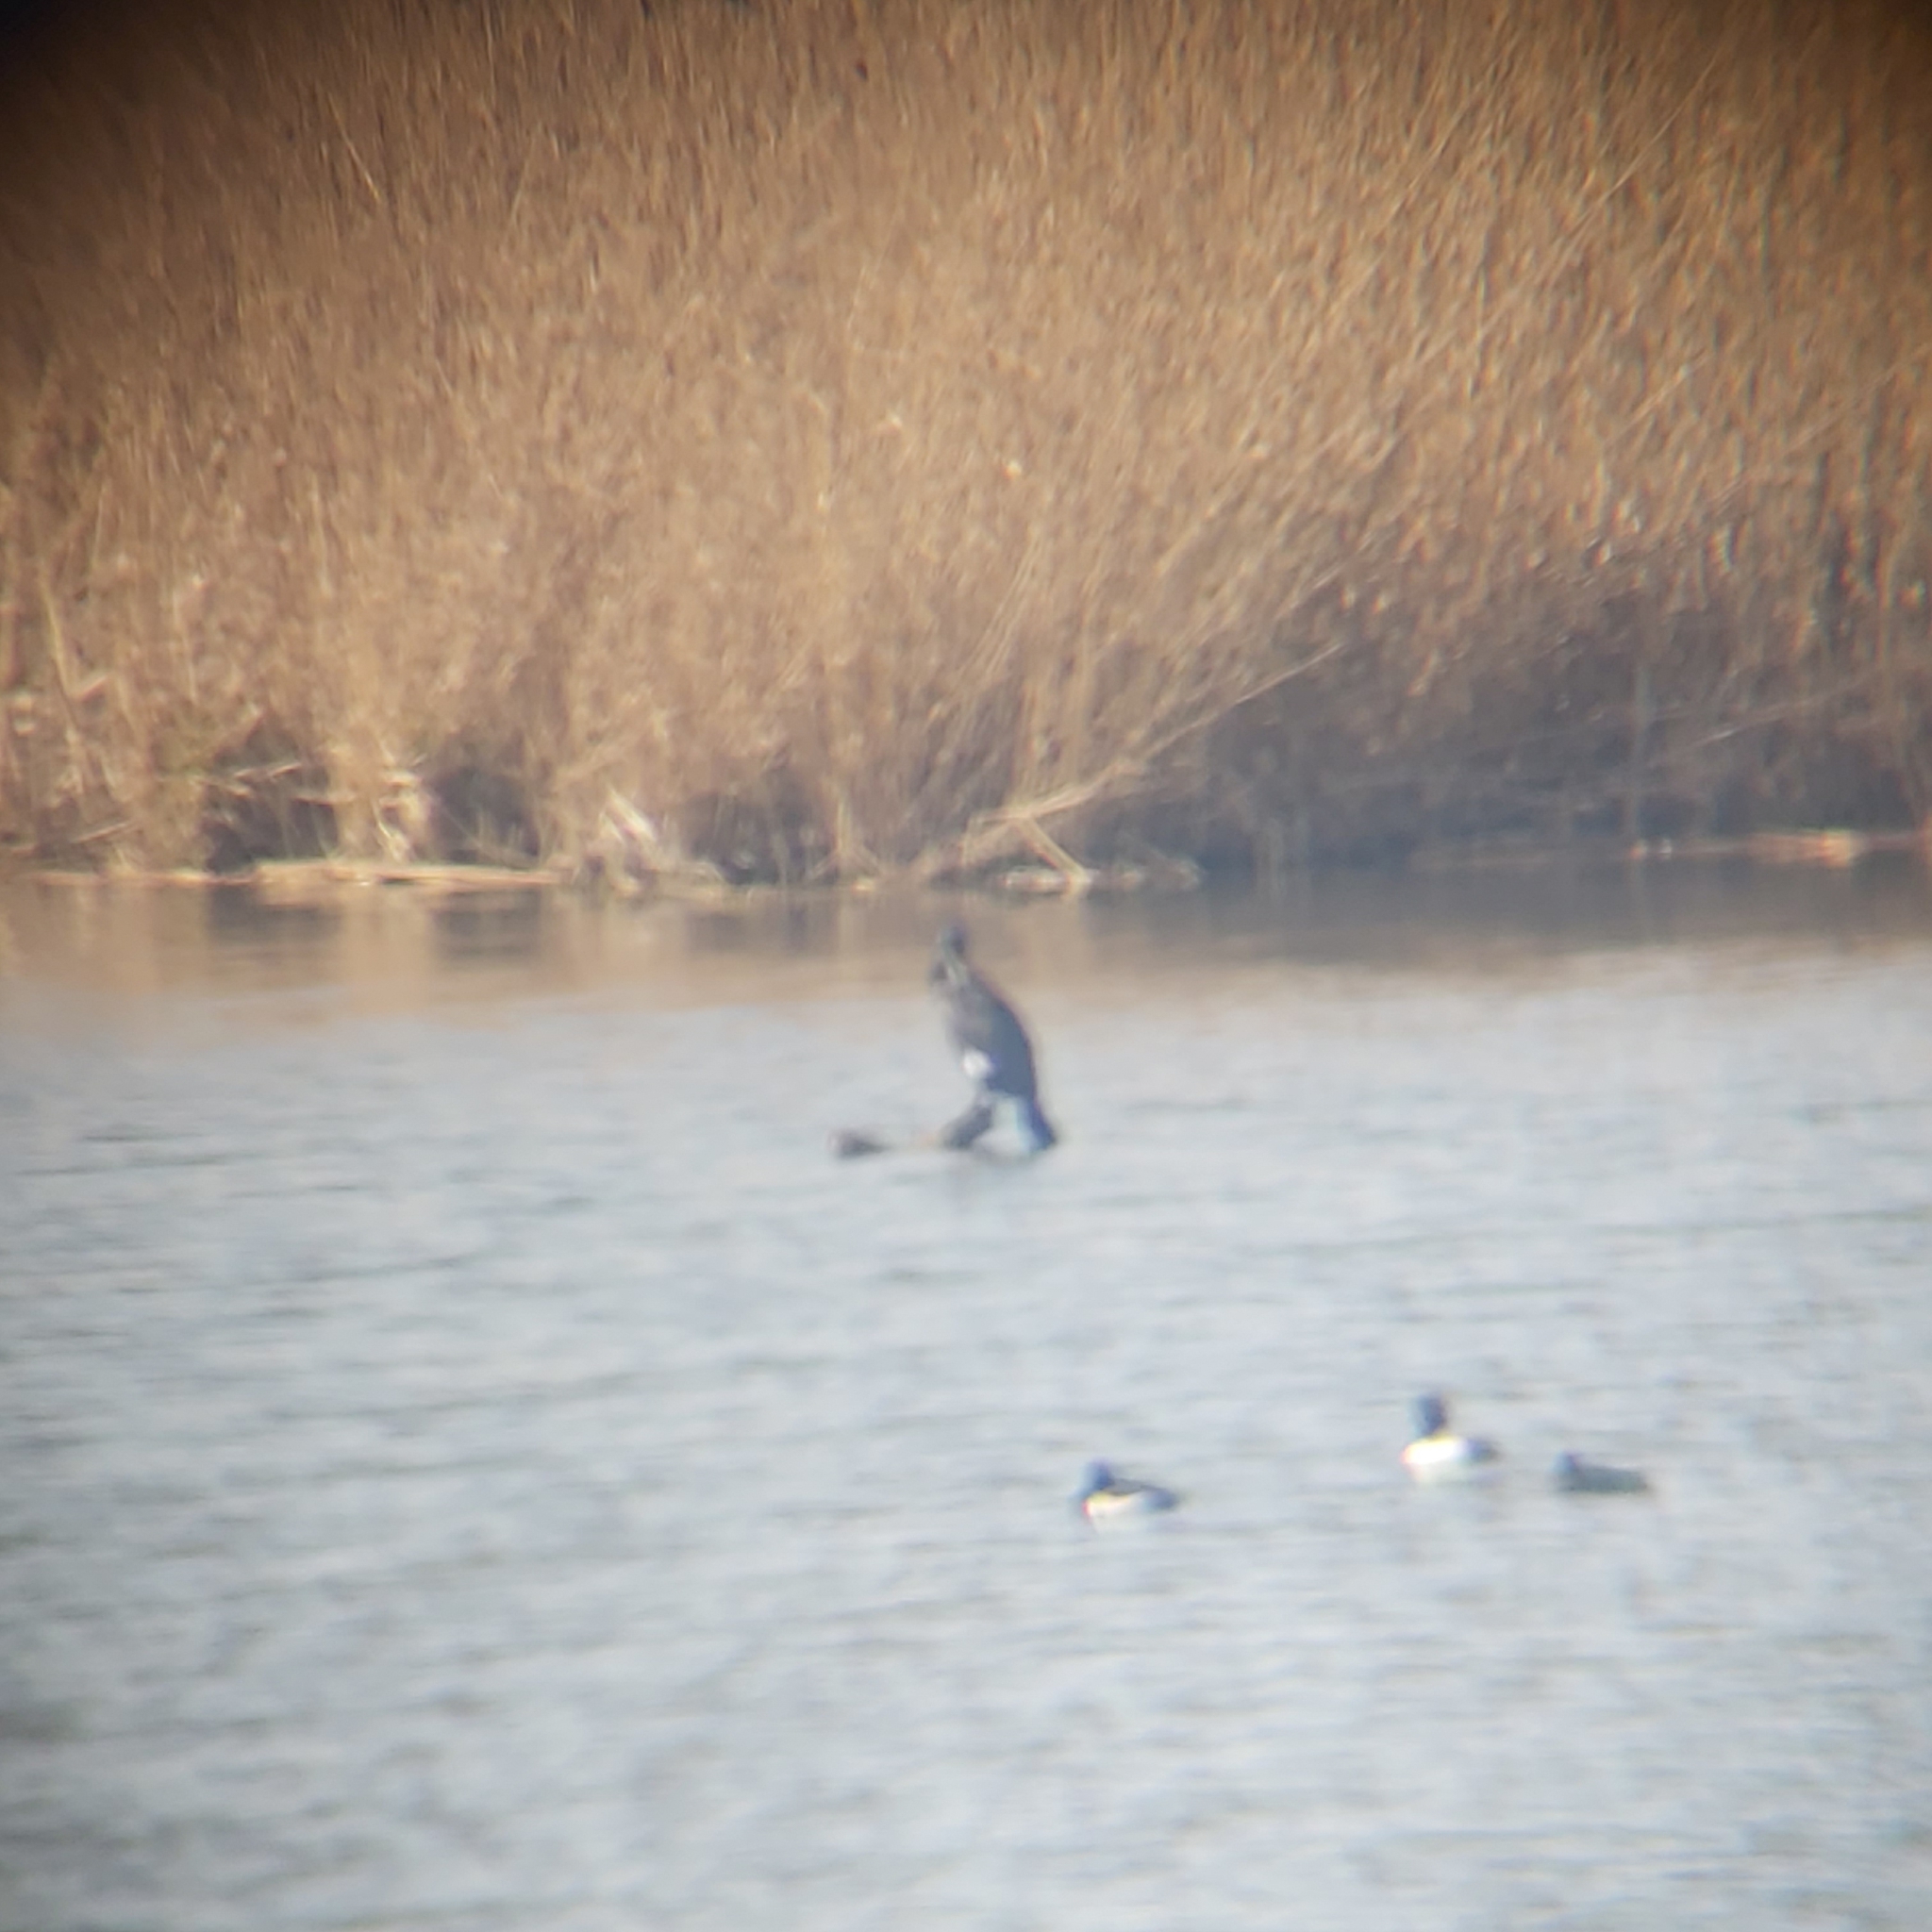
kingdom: Animalia
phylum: Chordata
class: Aves
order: Suliformes
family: Phalacrocoracidae
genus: Phalacrocorax
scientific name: Phalacrocorax carbo
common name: Great cormorant
